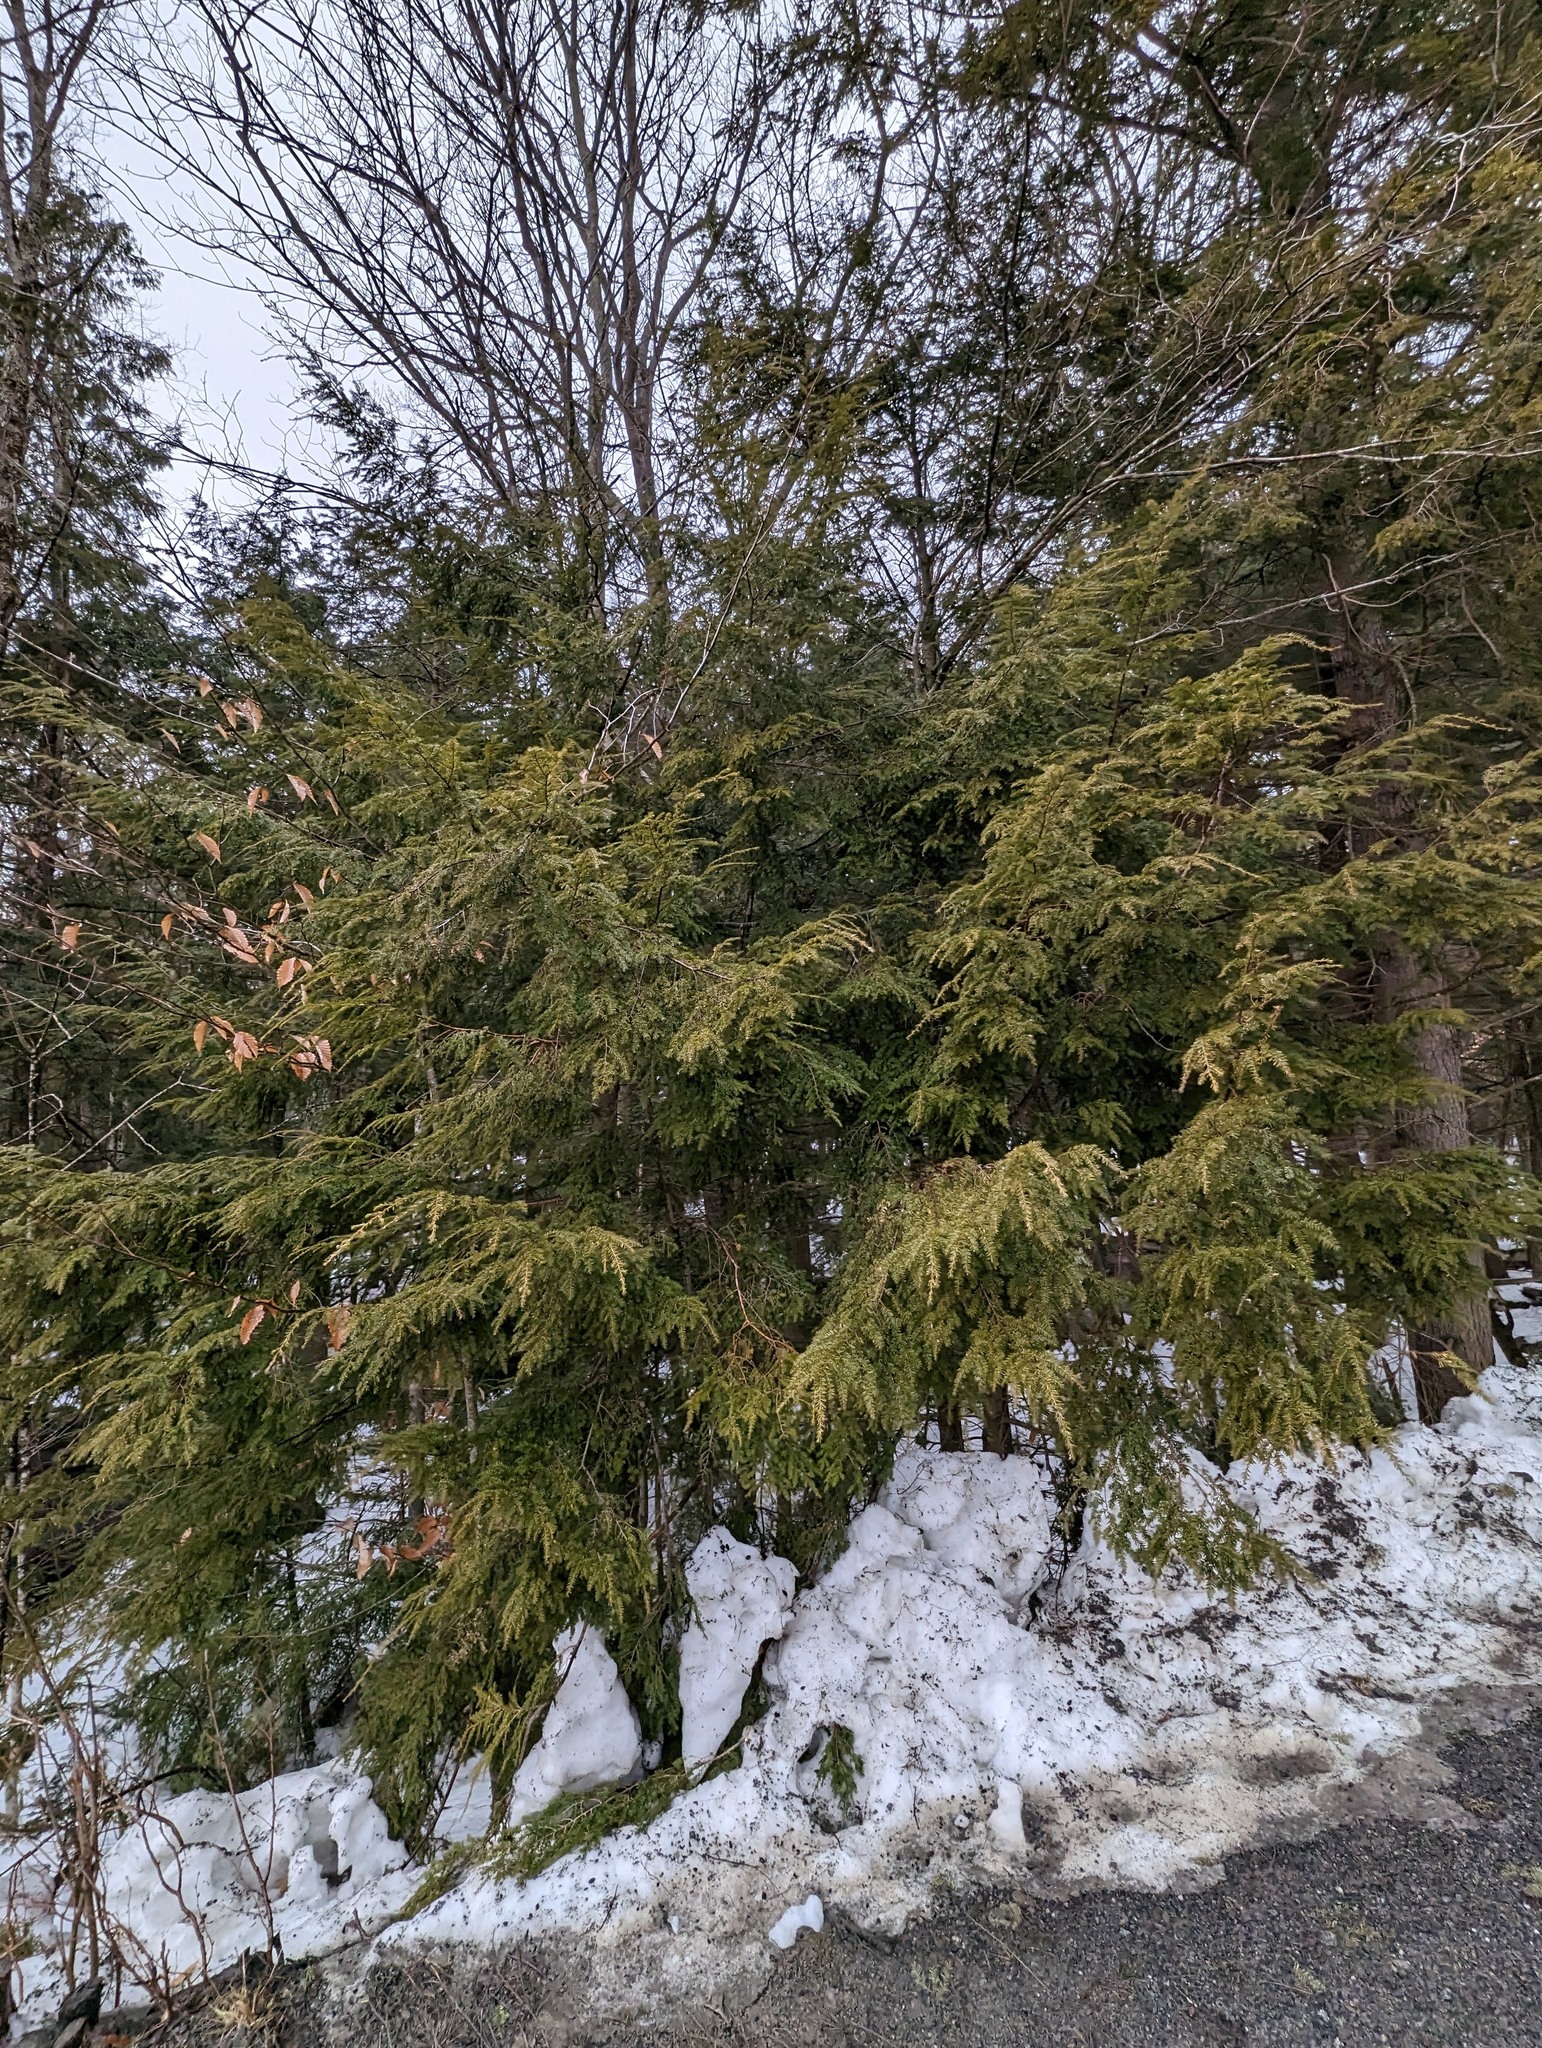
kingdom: Plantae
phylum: Tracheophyta
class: Pinopsida
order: Pinales
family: Pinaceae
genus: Tsuga
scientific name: Tsuga canadensis
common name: Eastern hemlock
